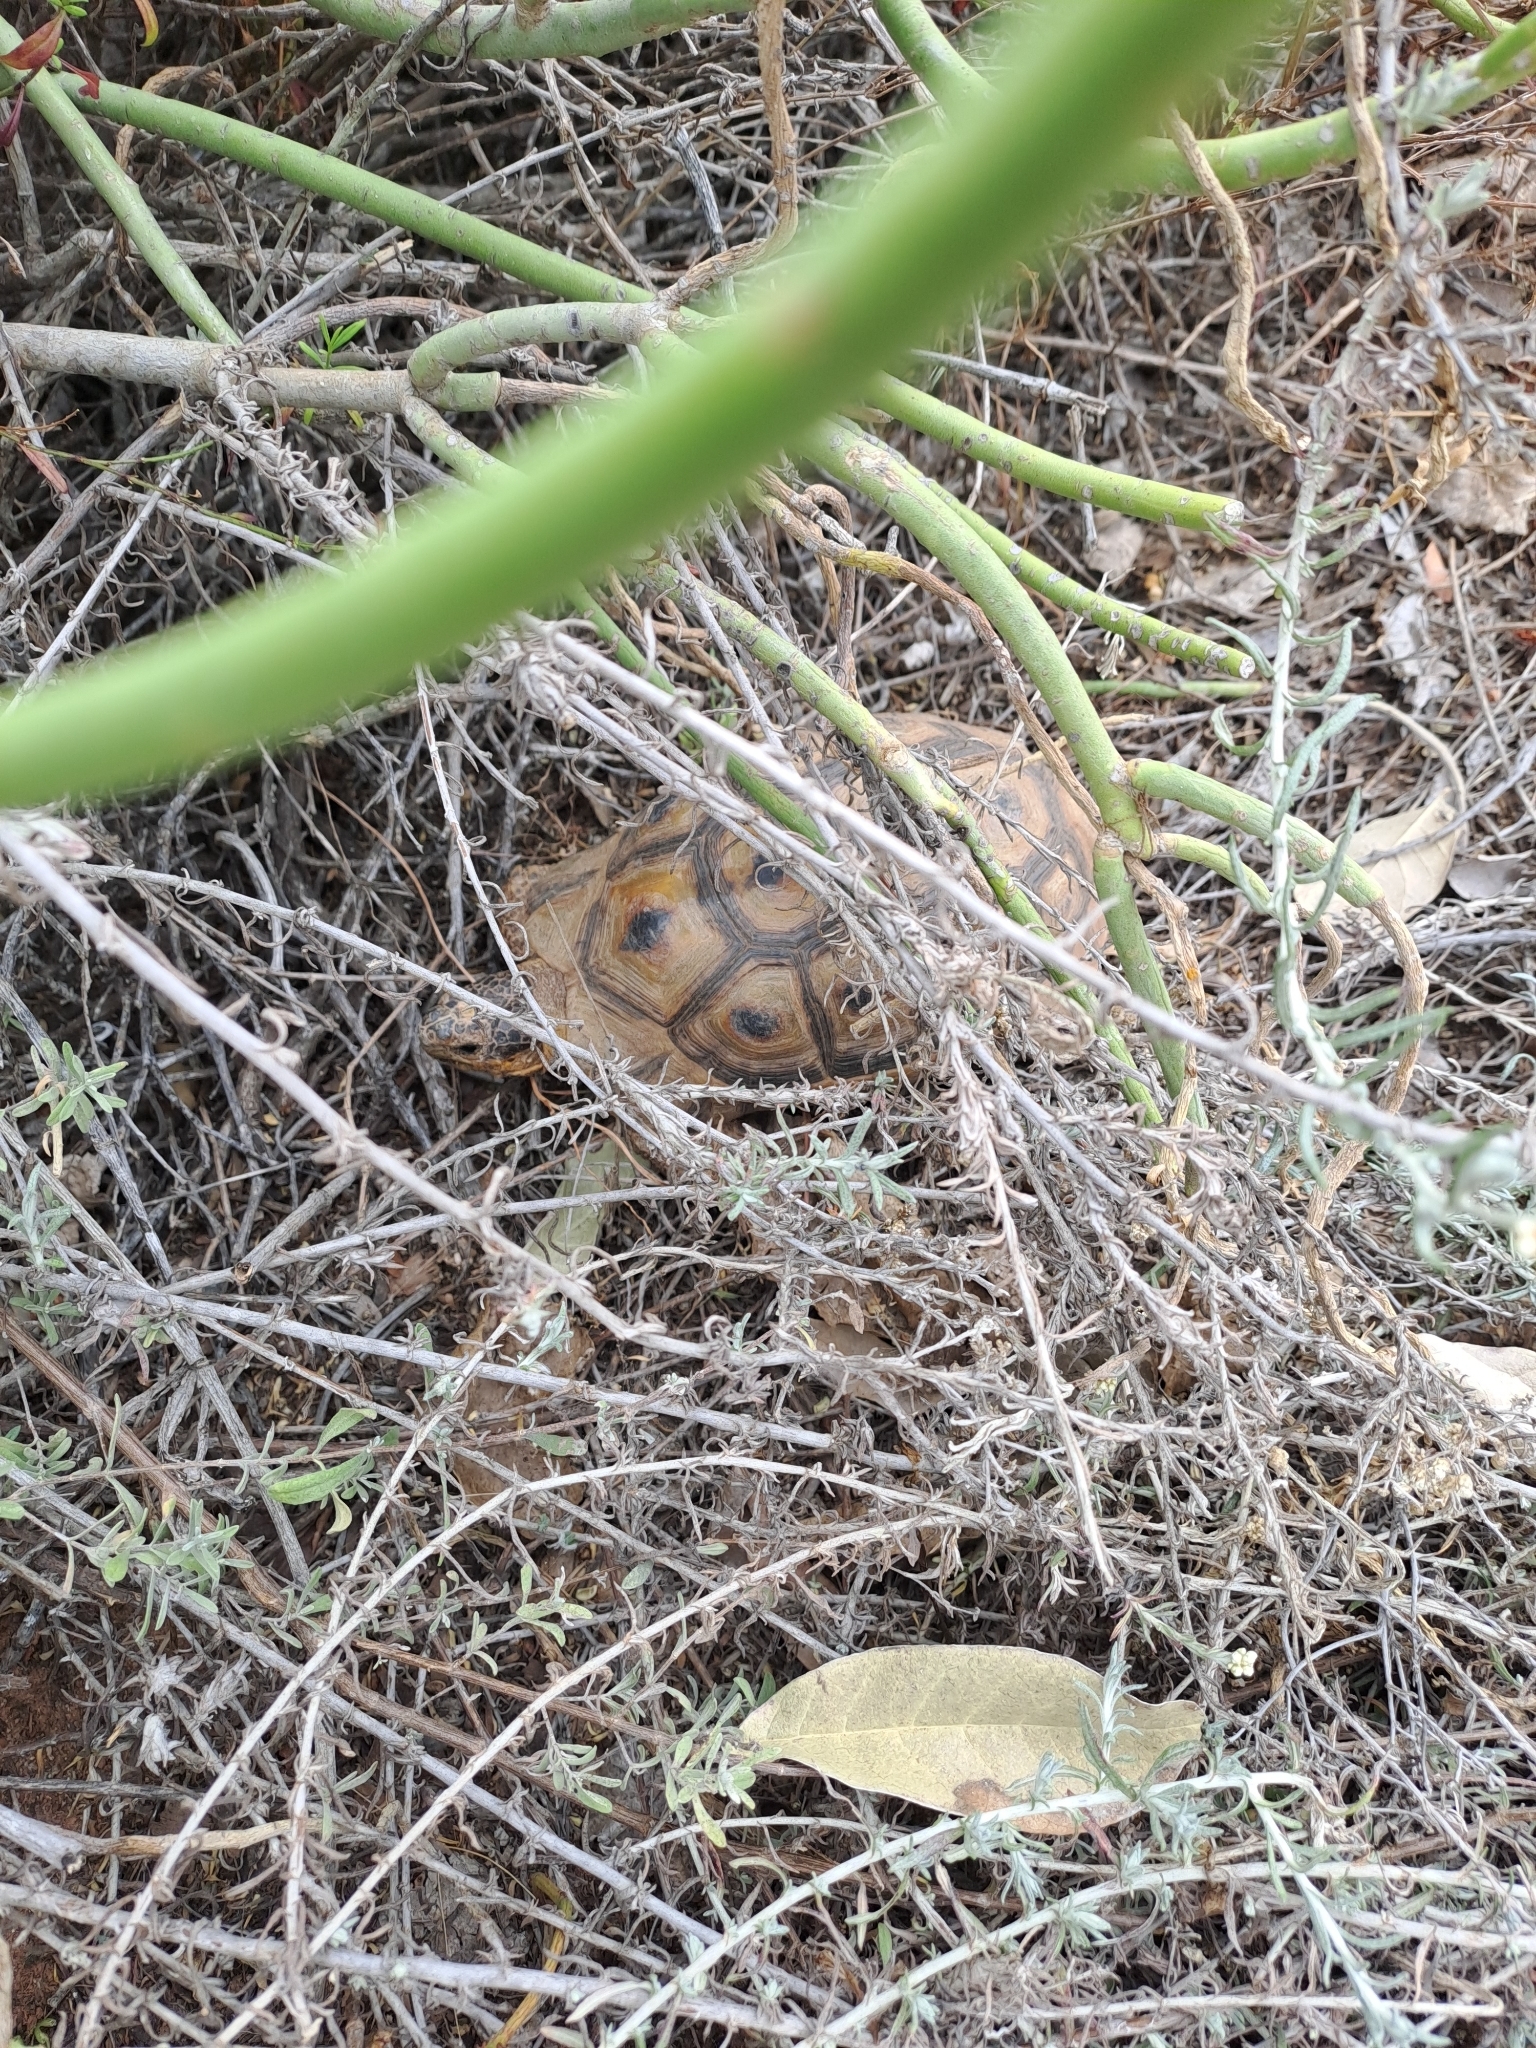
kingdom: Animalia
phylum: Chordata
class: Testudines
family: Testudinidae
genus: Chersina
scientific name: Chersina angulata
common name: South african bowsprit tortoise
